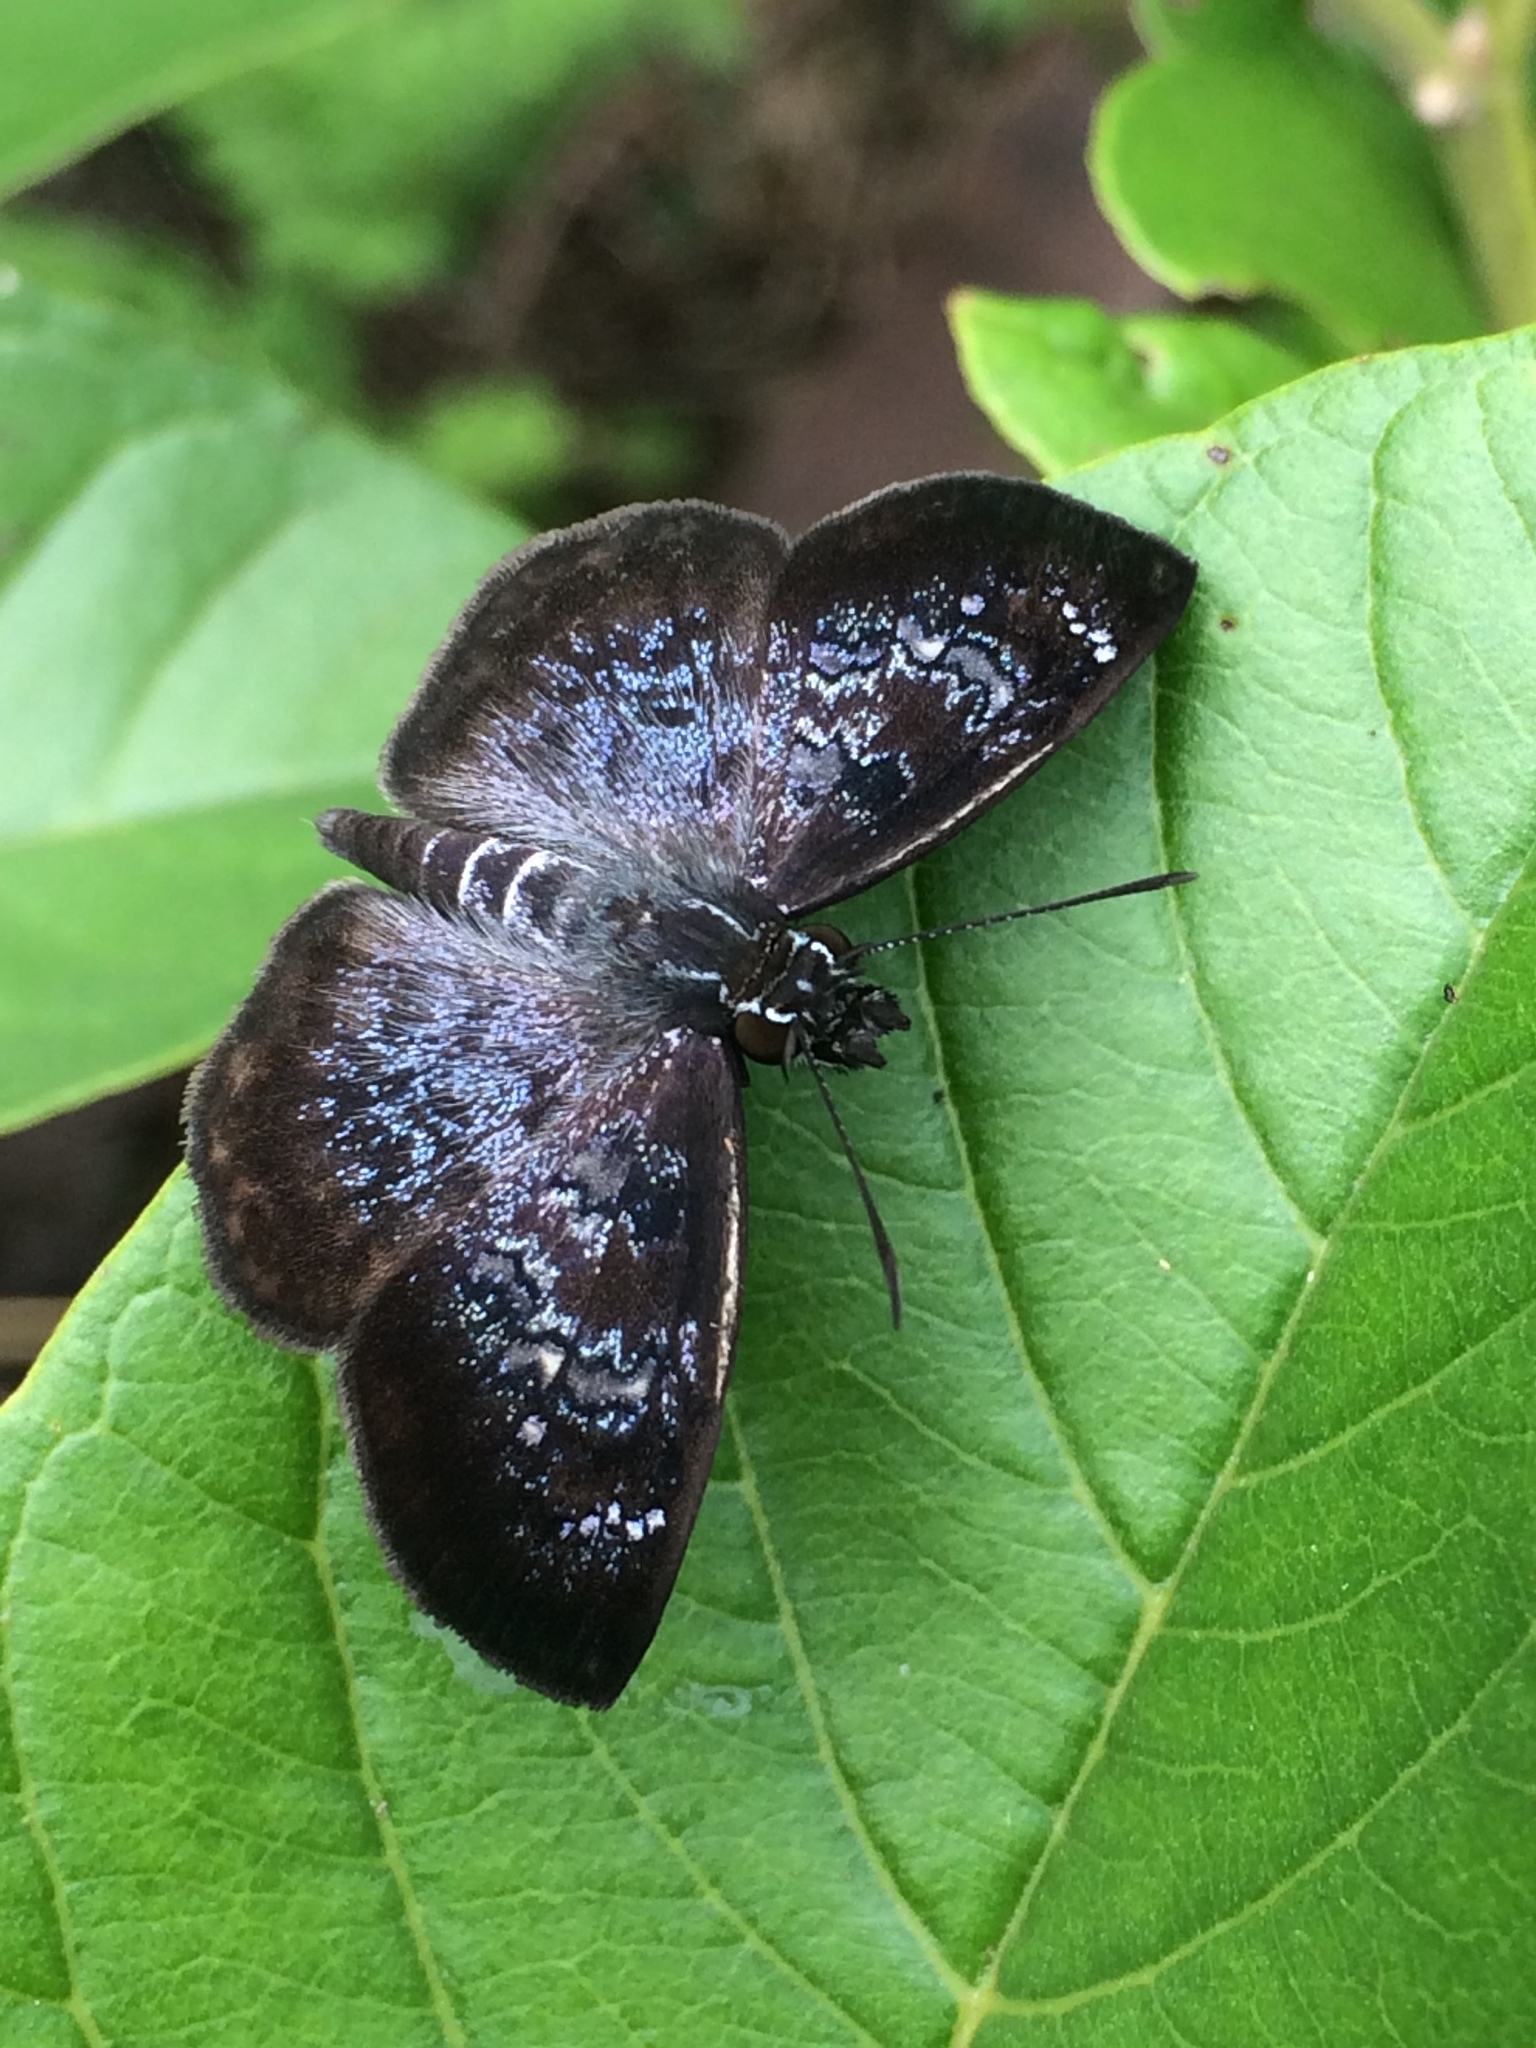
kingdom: Animalia
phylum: Arthropoda
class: Insecta
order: Lepidoptera
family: Hesperiidae
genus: Sophista
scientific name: Sophista bifasciata
